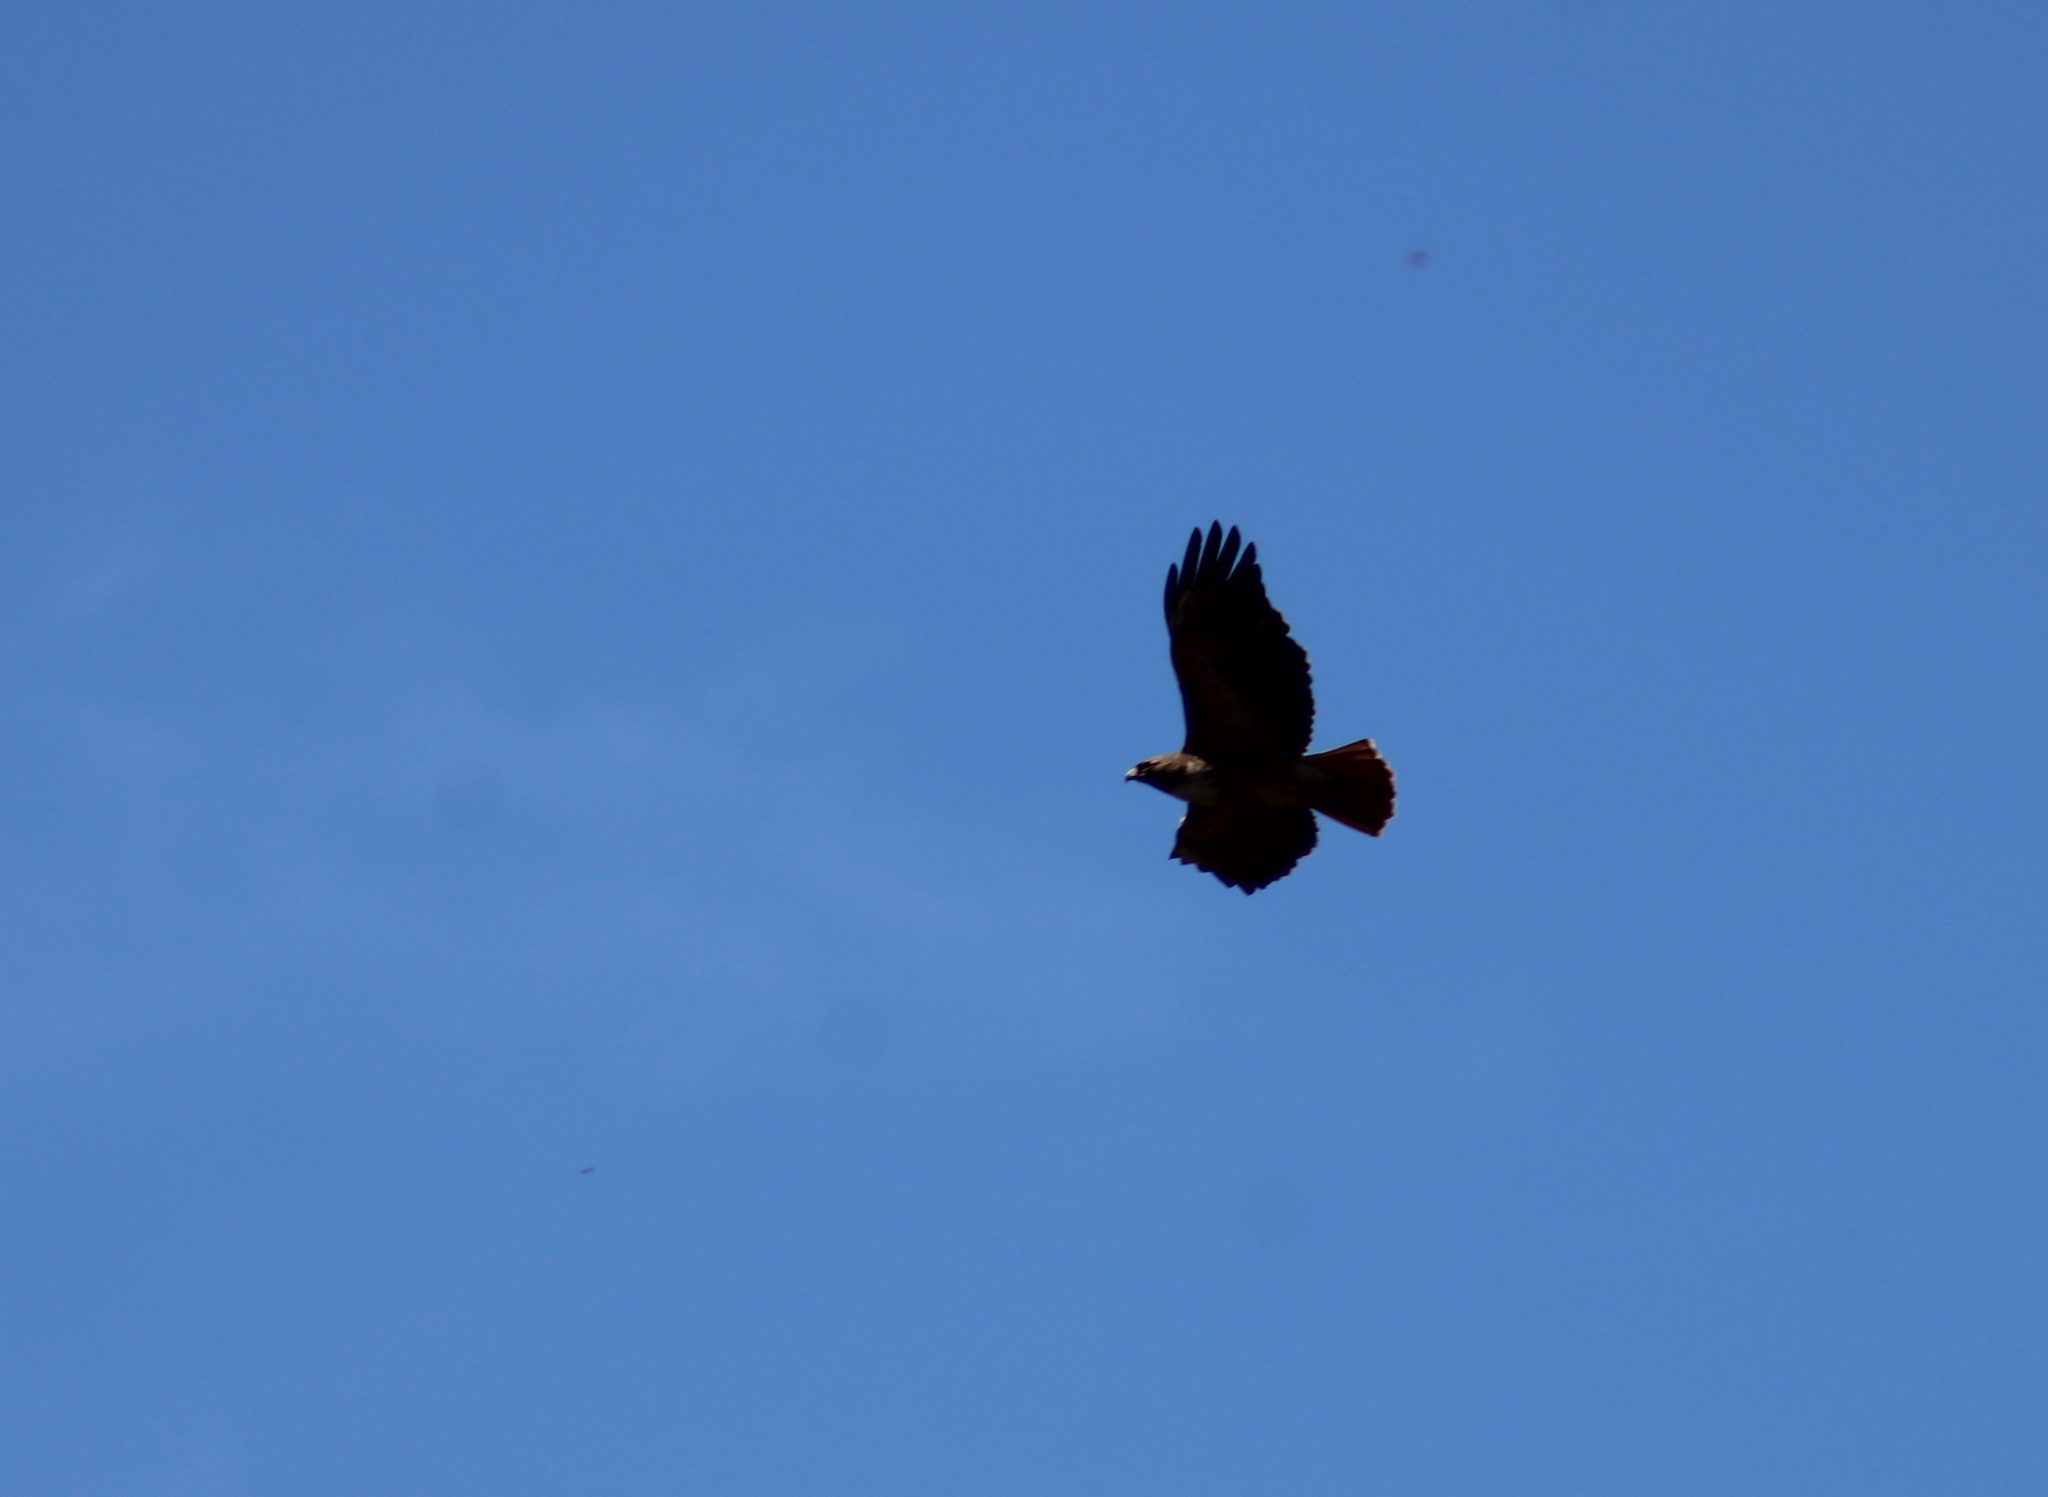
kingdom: Animalia
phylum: Chordata
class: Aves
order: Accipitriformes
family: Accipitridae
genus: Buteo
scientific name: Buteo jamaicensis
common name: Red-tailed hawk
